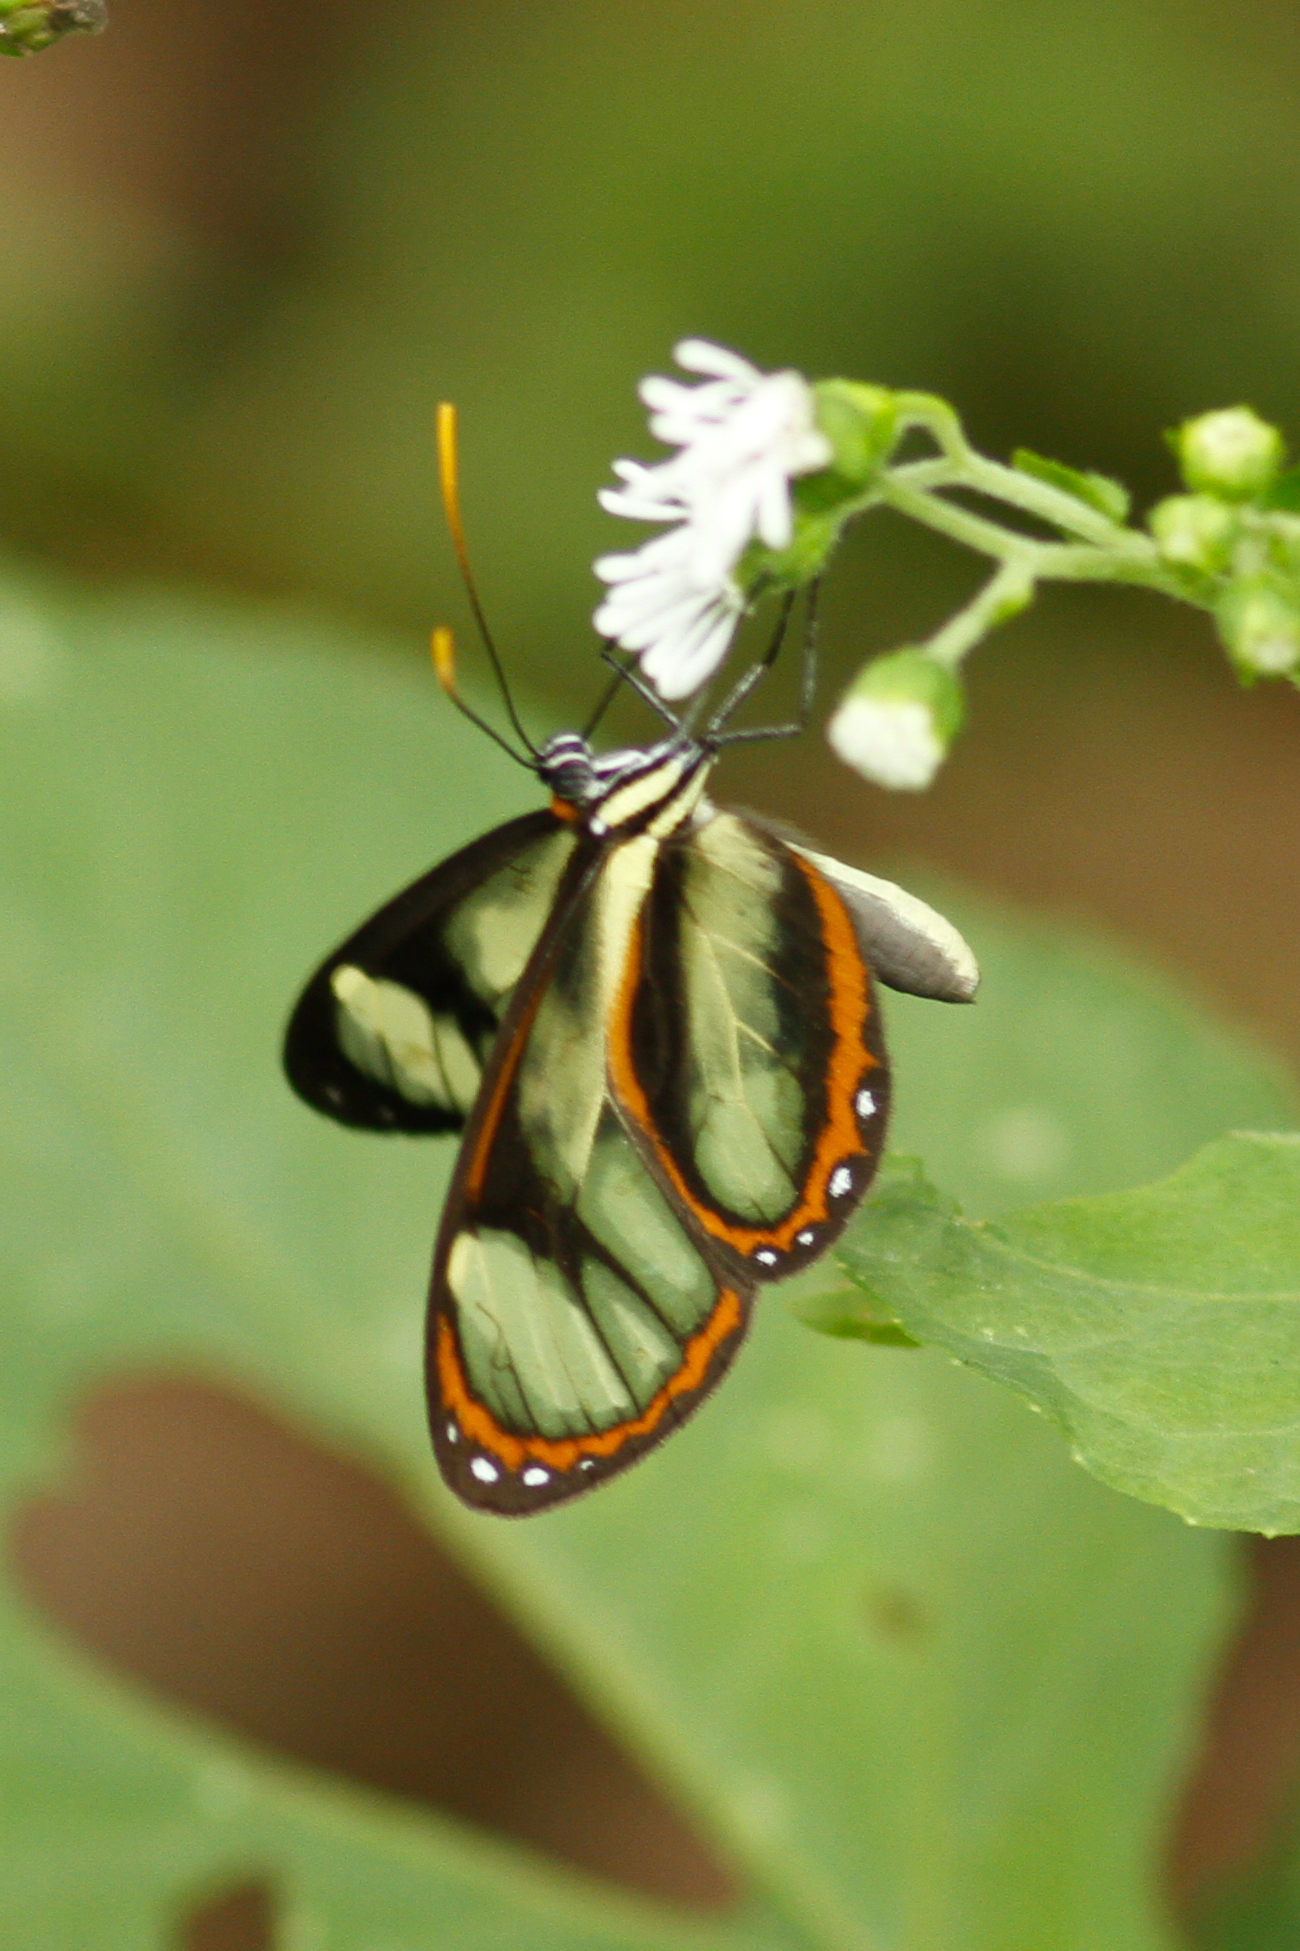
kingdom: Animalia
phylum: Arthropoda
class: Insecta
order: Lepidoptera
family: Nymphalidae
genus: Ithomia
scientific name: Ithomia salapia
